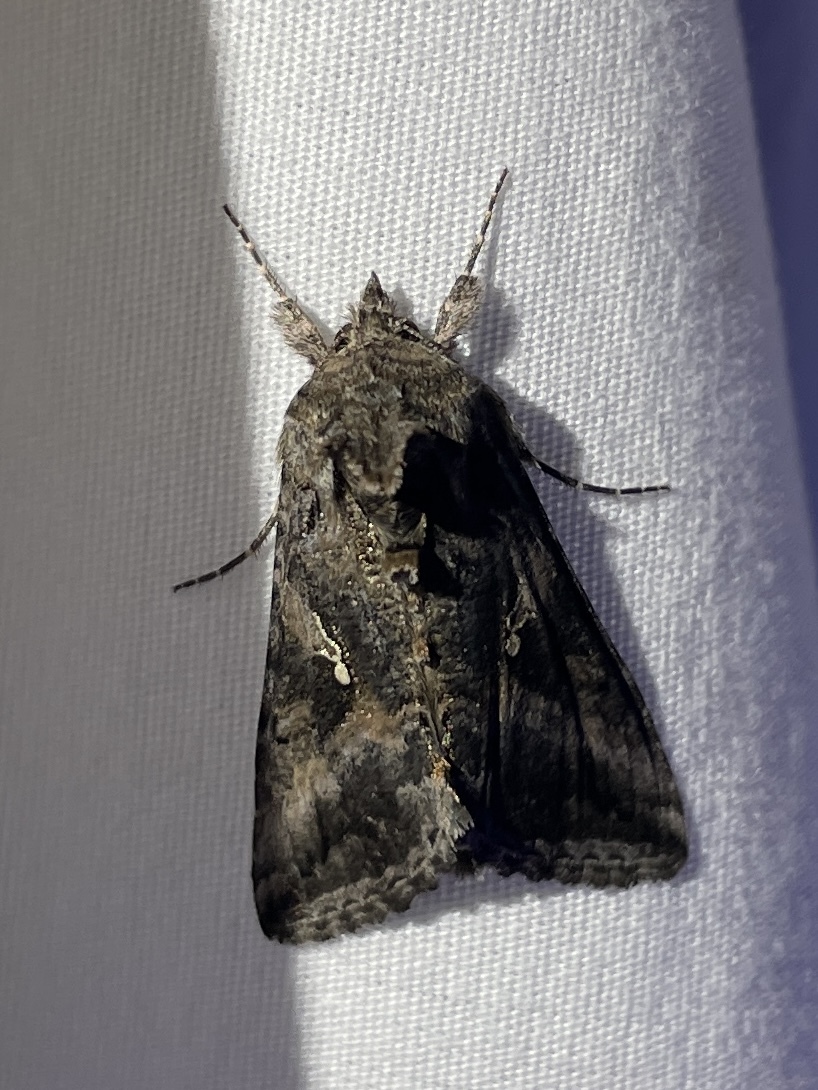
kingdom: Animalia
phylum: Arthropoda
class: Insecta
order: Lepidoptera
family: Noctuidae
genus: Rachiplusia
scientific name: Rachiplusia ou
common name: Gray looper moth
